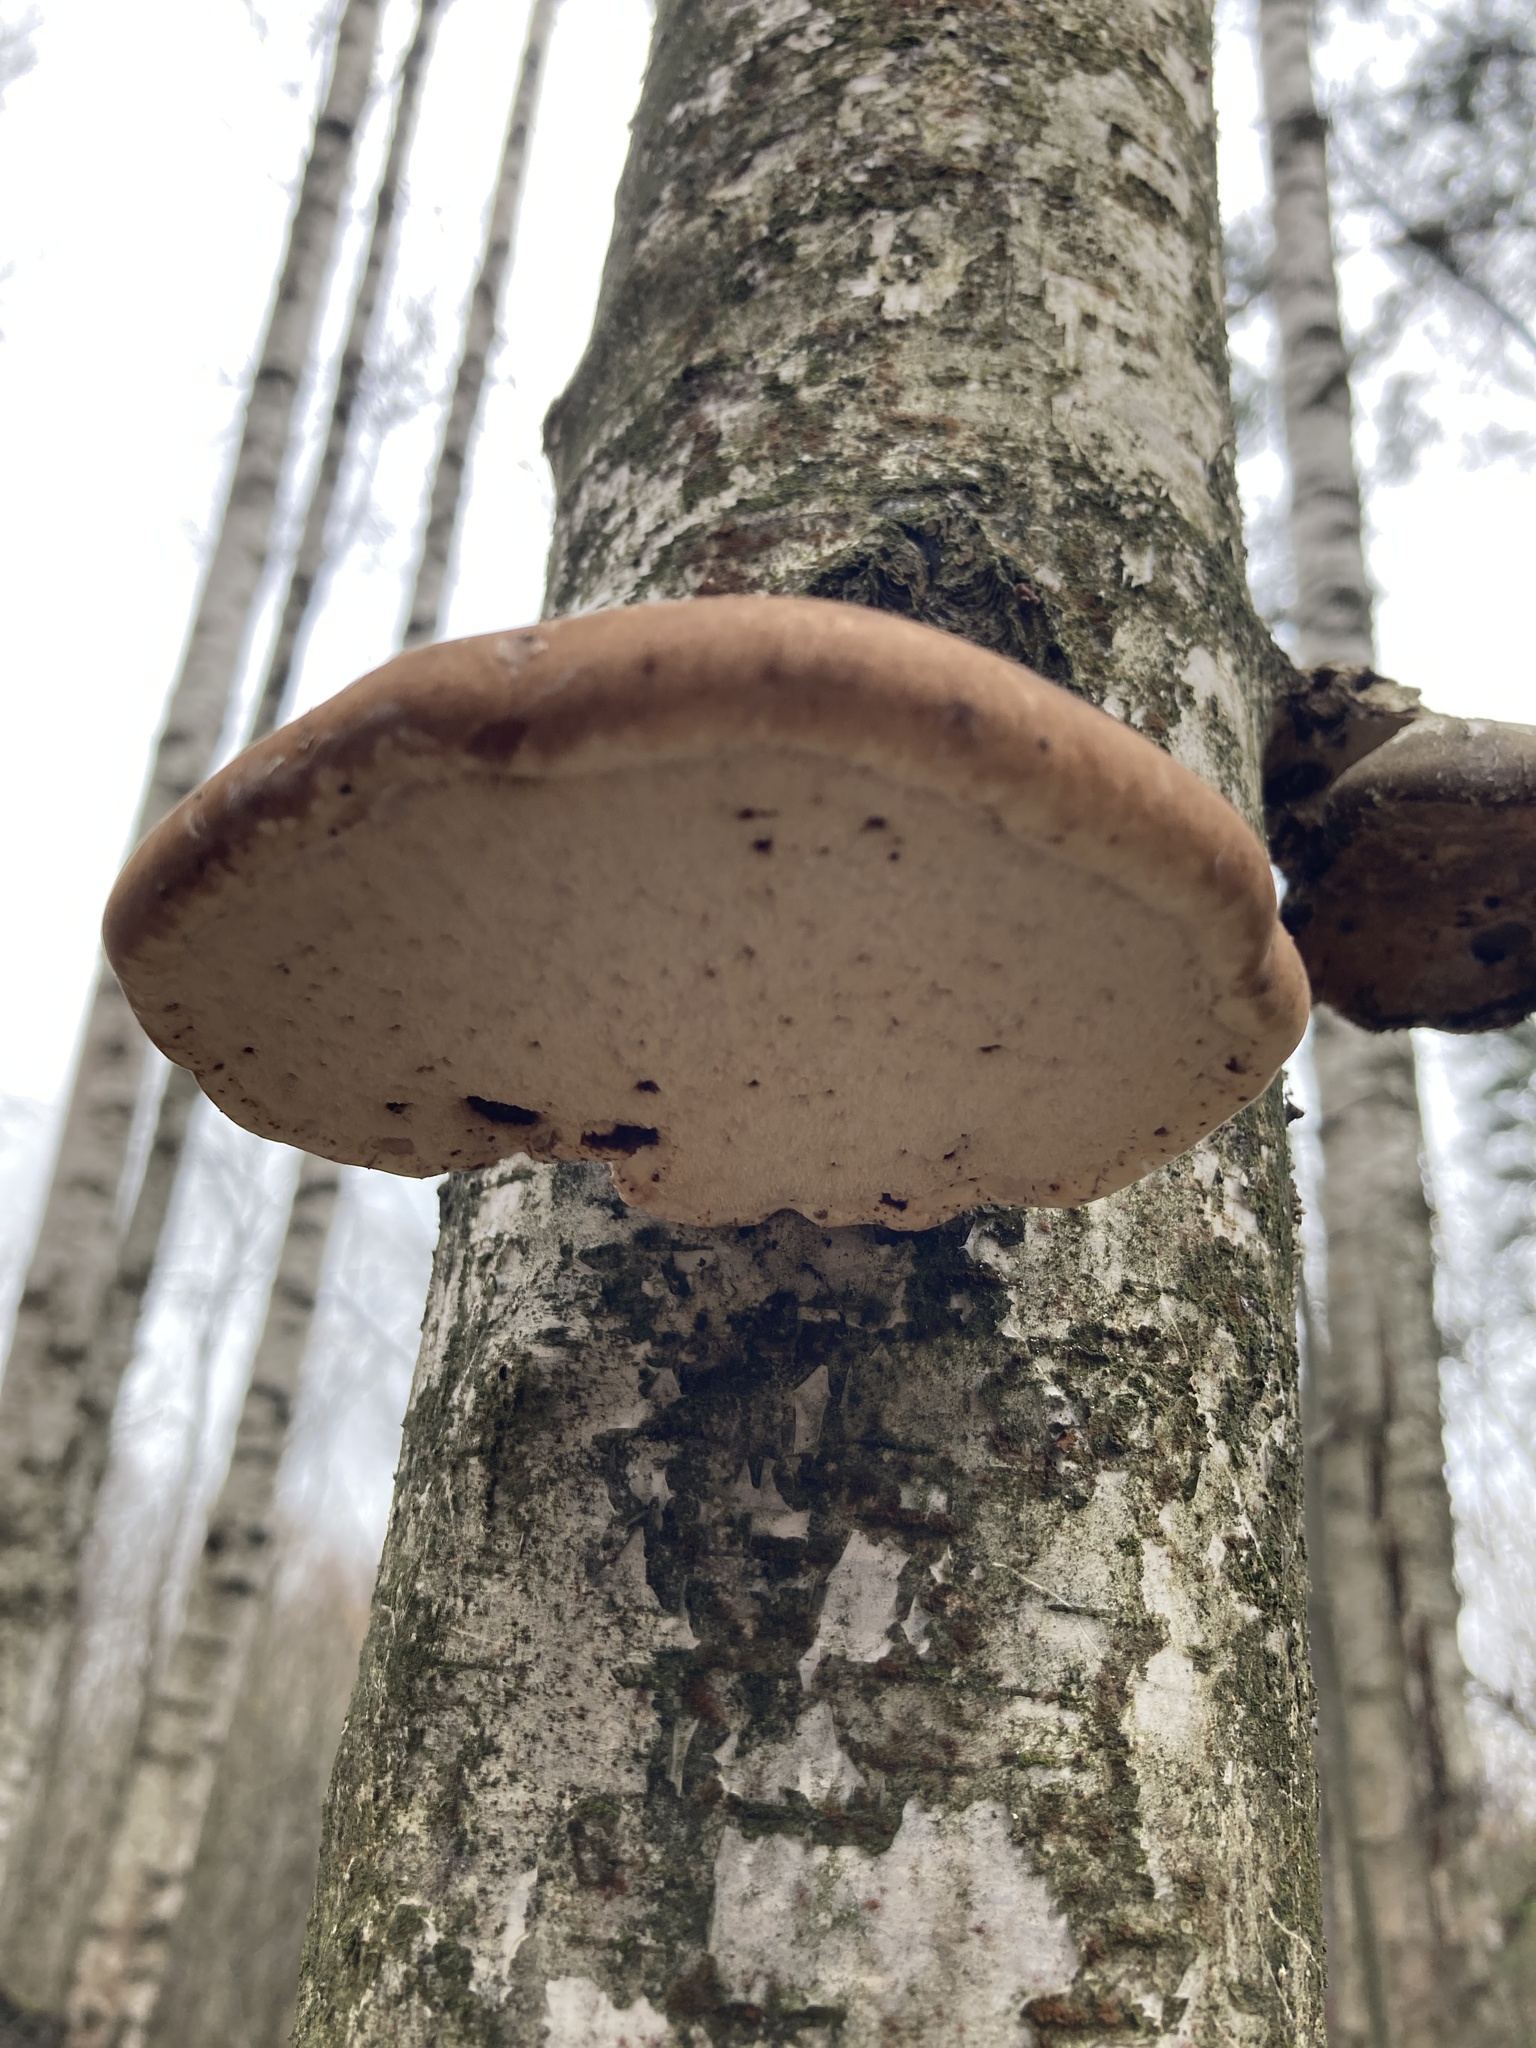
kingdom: Fungi
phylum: Basidiomycota
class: Agaricomycetes
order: Polyporales
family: Fomitopsidaceae
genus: Fomitopsis
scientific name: Fomitopsis betulina
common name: Birch polypore
